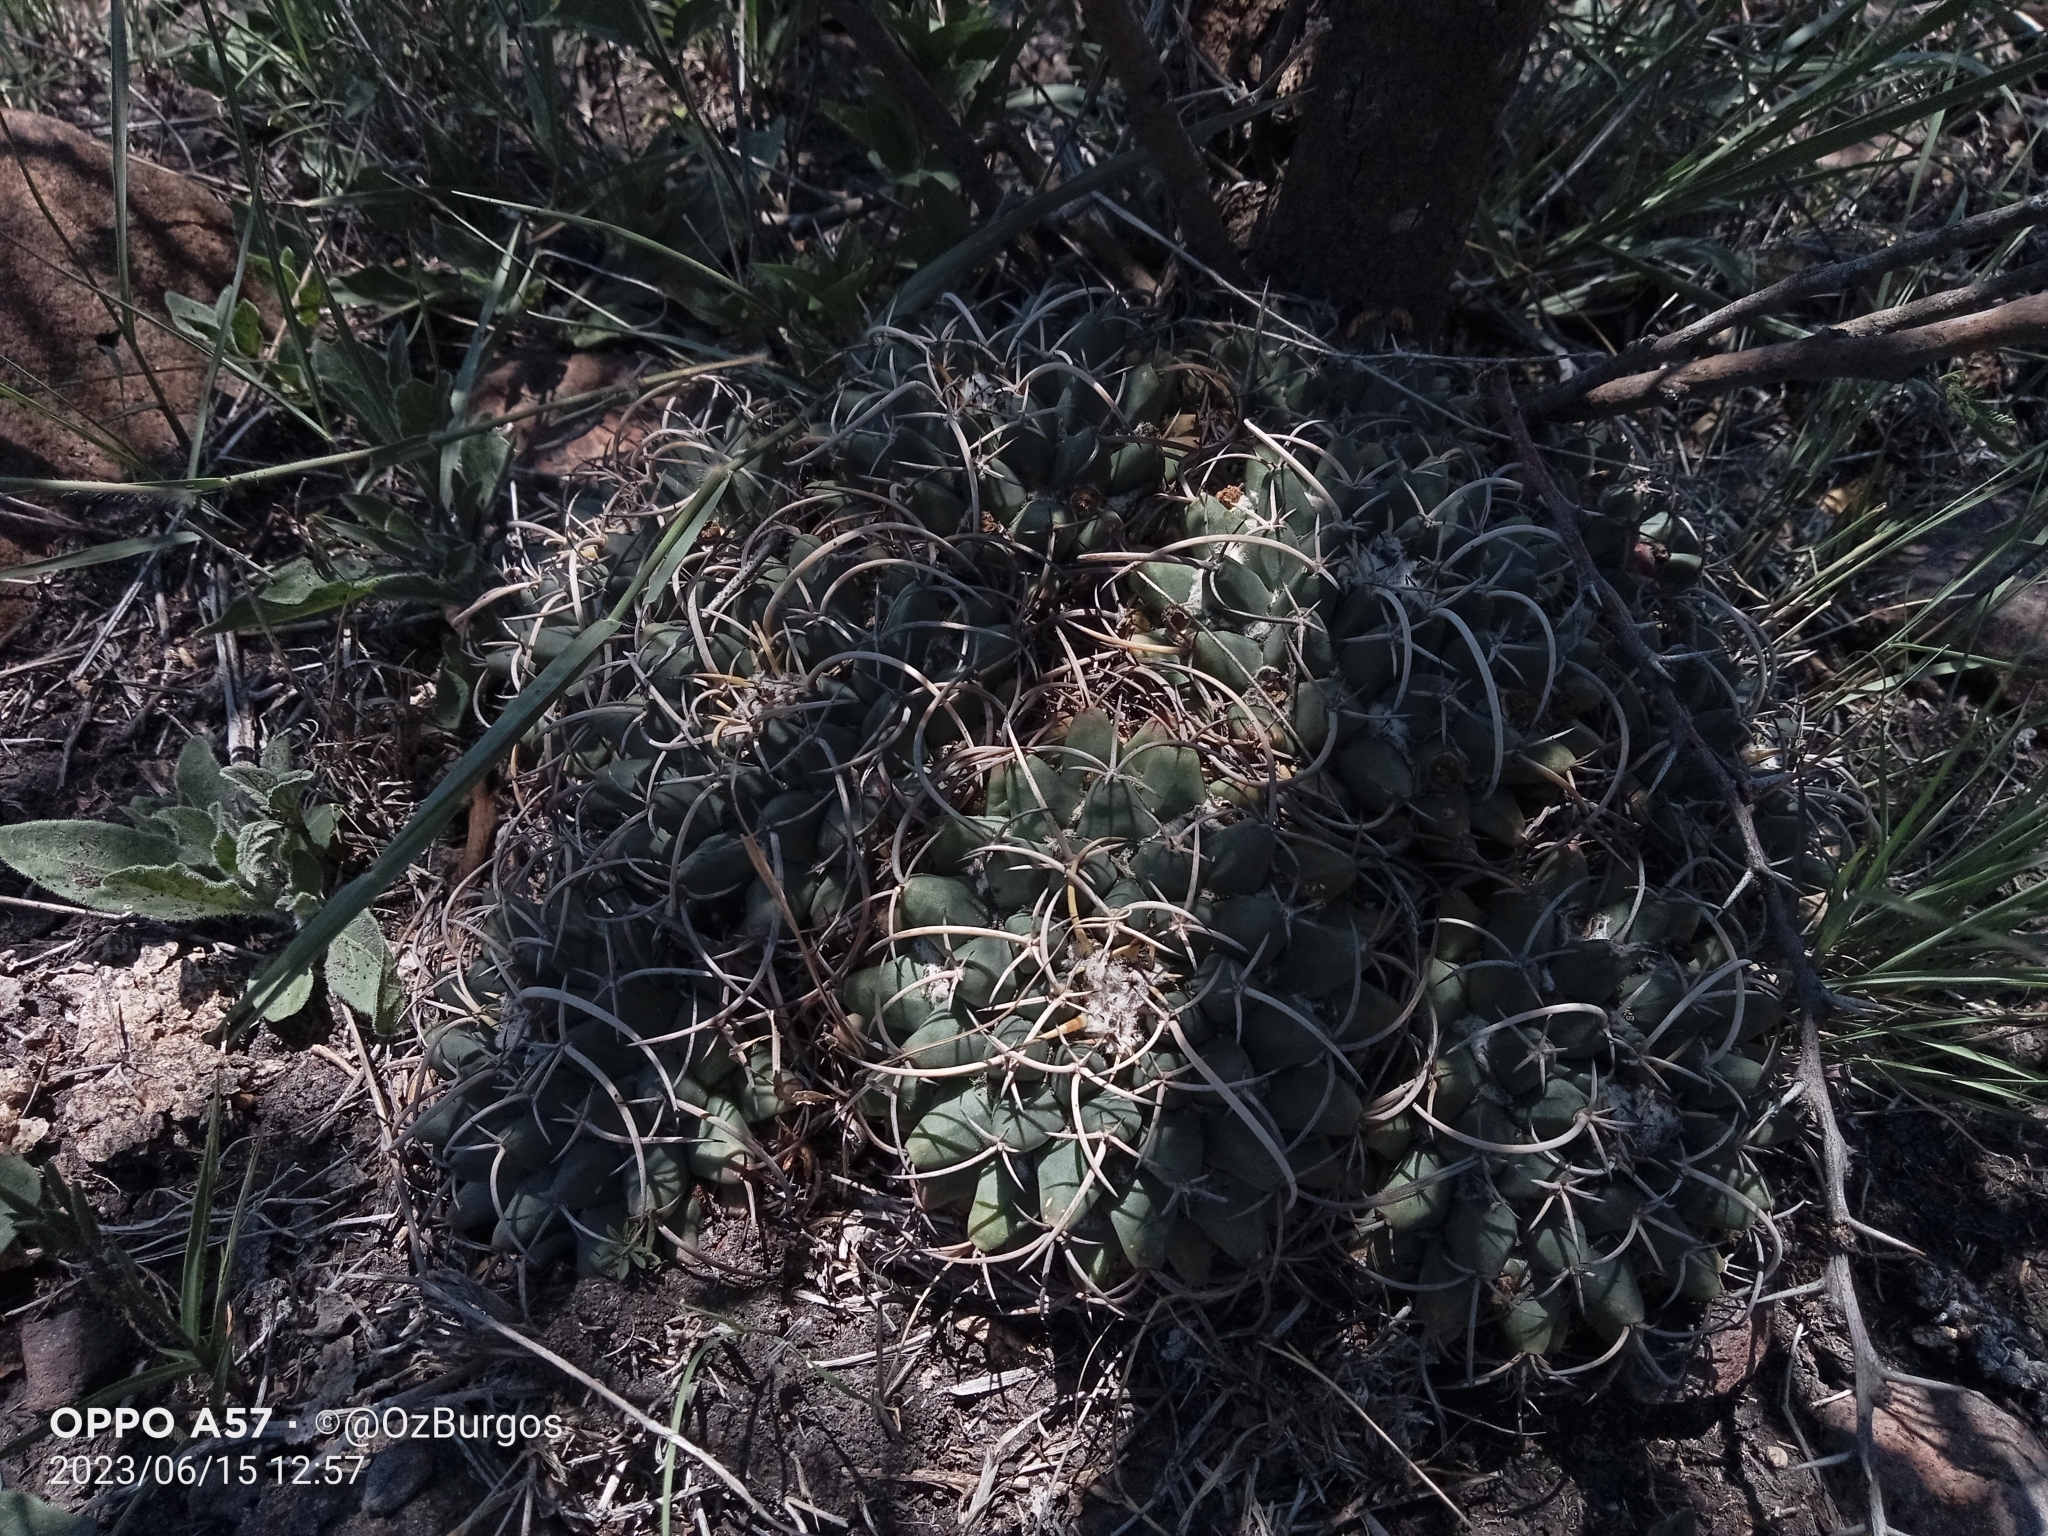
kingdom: Plantae
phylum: Tracheophyta
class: Magnoliopsida
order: Caryophyllales
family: Cactaceae
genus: Mammillaria
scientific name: Mammillaria magnimamma
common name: Mexican pincushion
